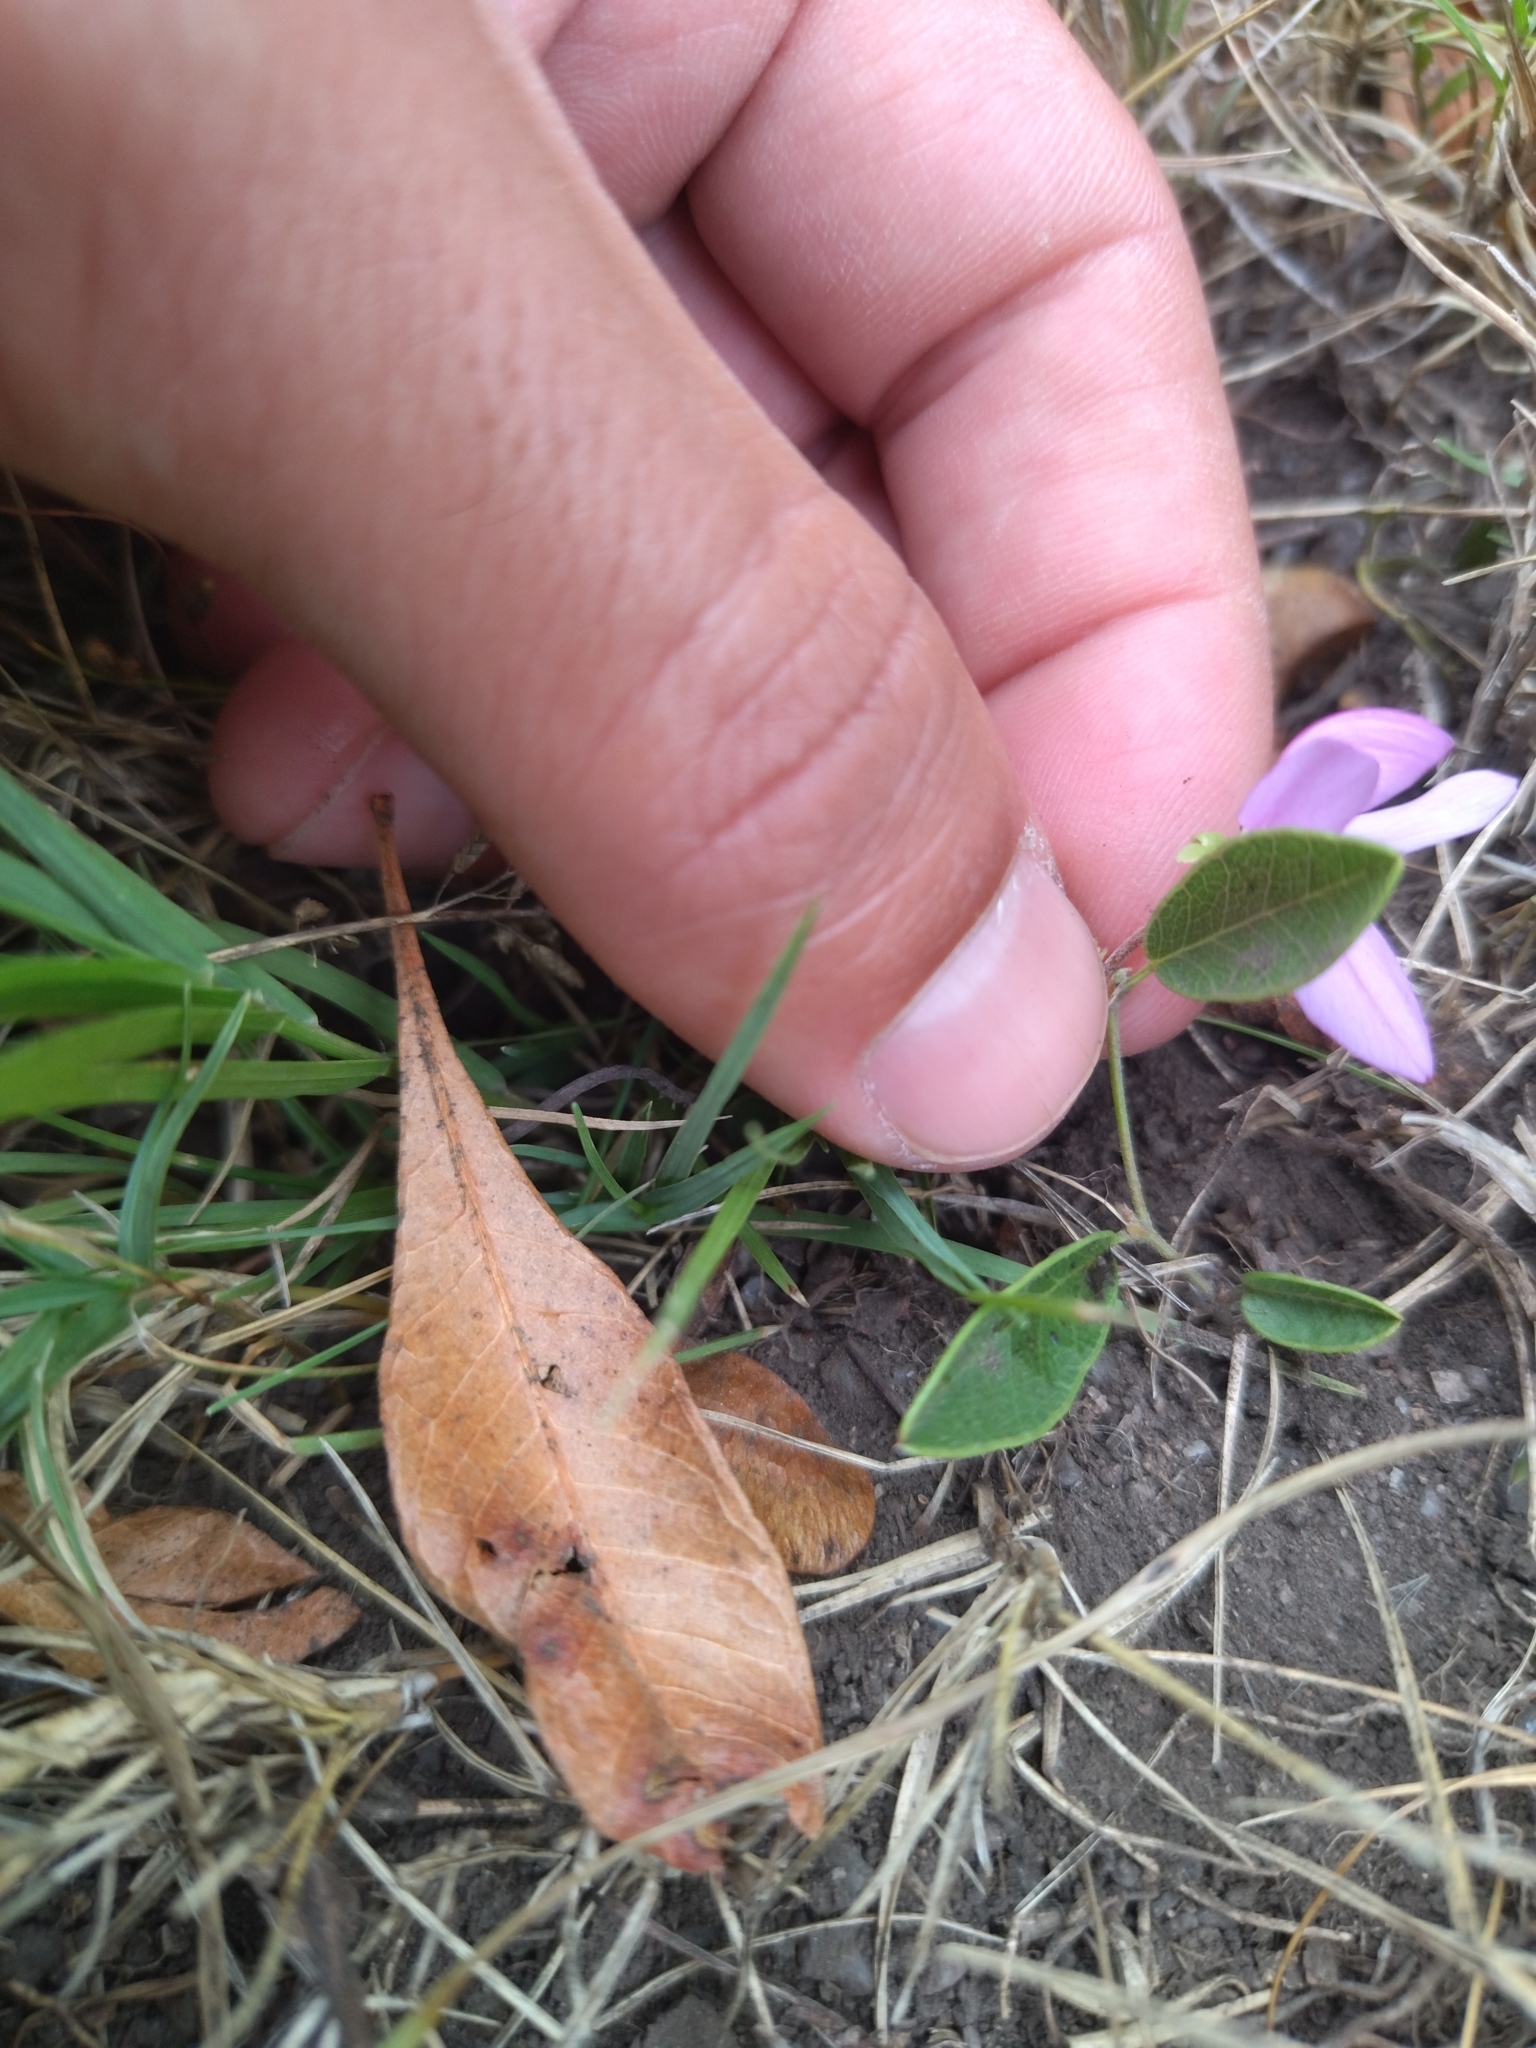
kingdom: Plantae
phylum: Tracheophyta
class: Magnoliopsida
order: Fabales
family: Fabaceae
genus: Nanogalactia
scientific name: Nanogalactia heterophylla
